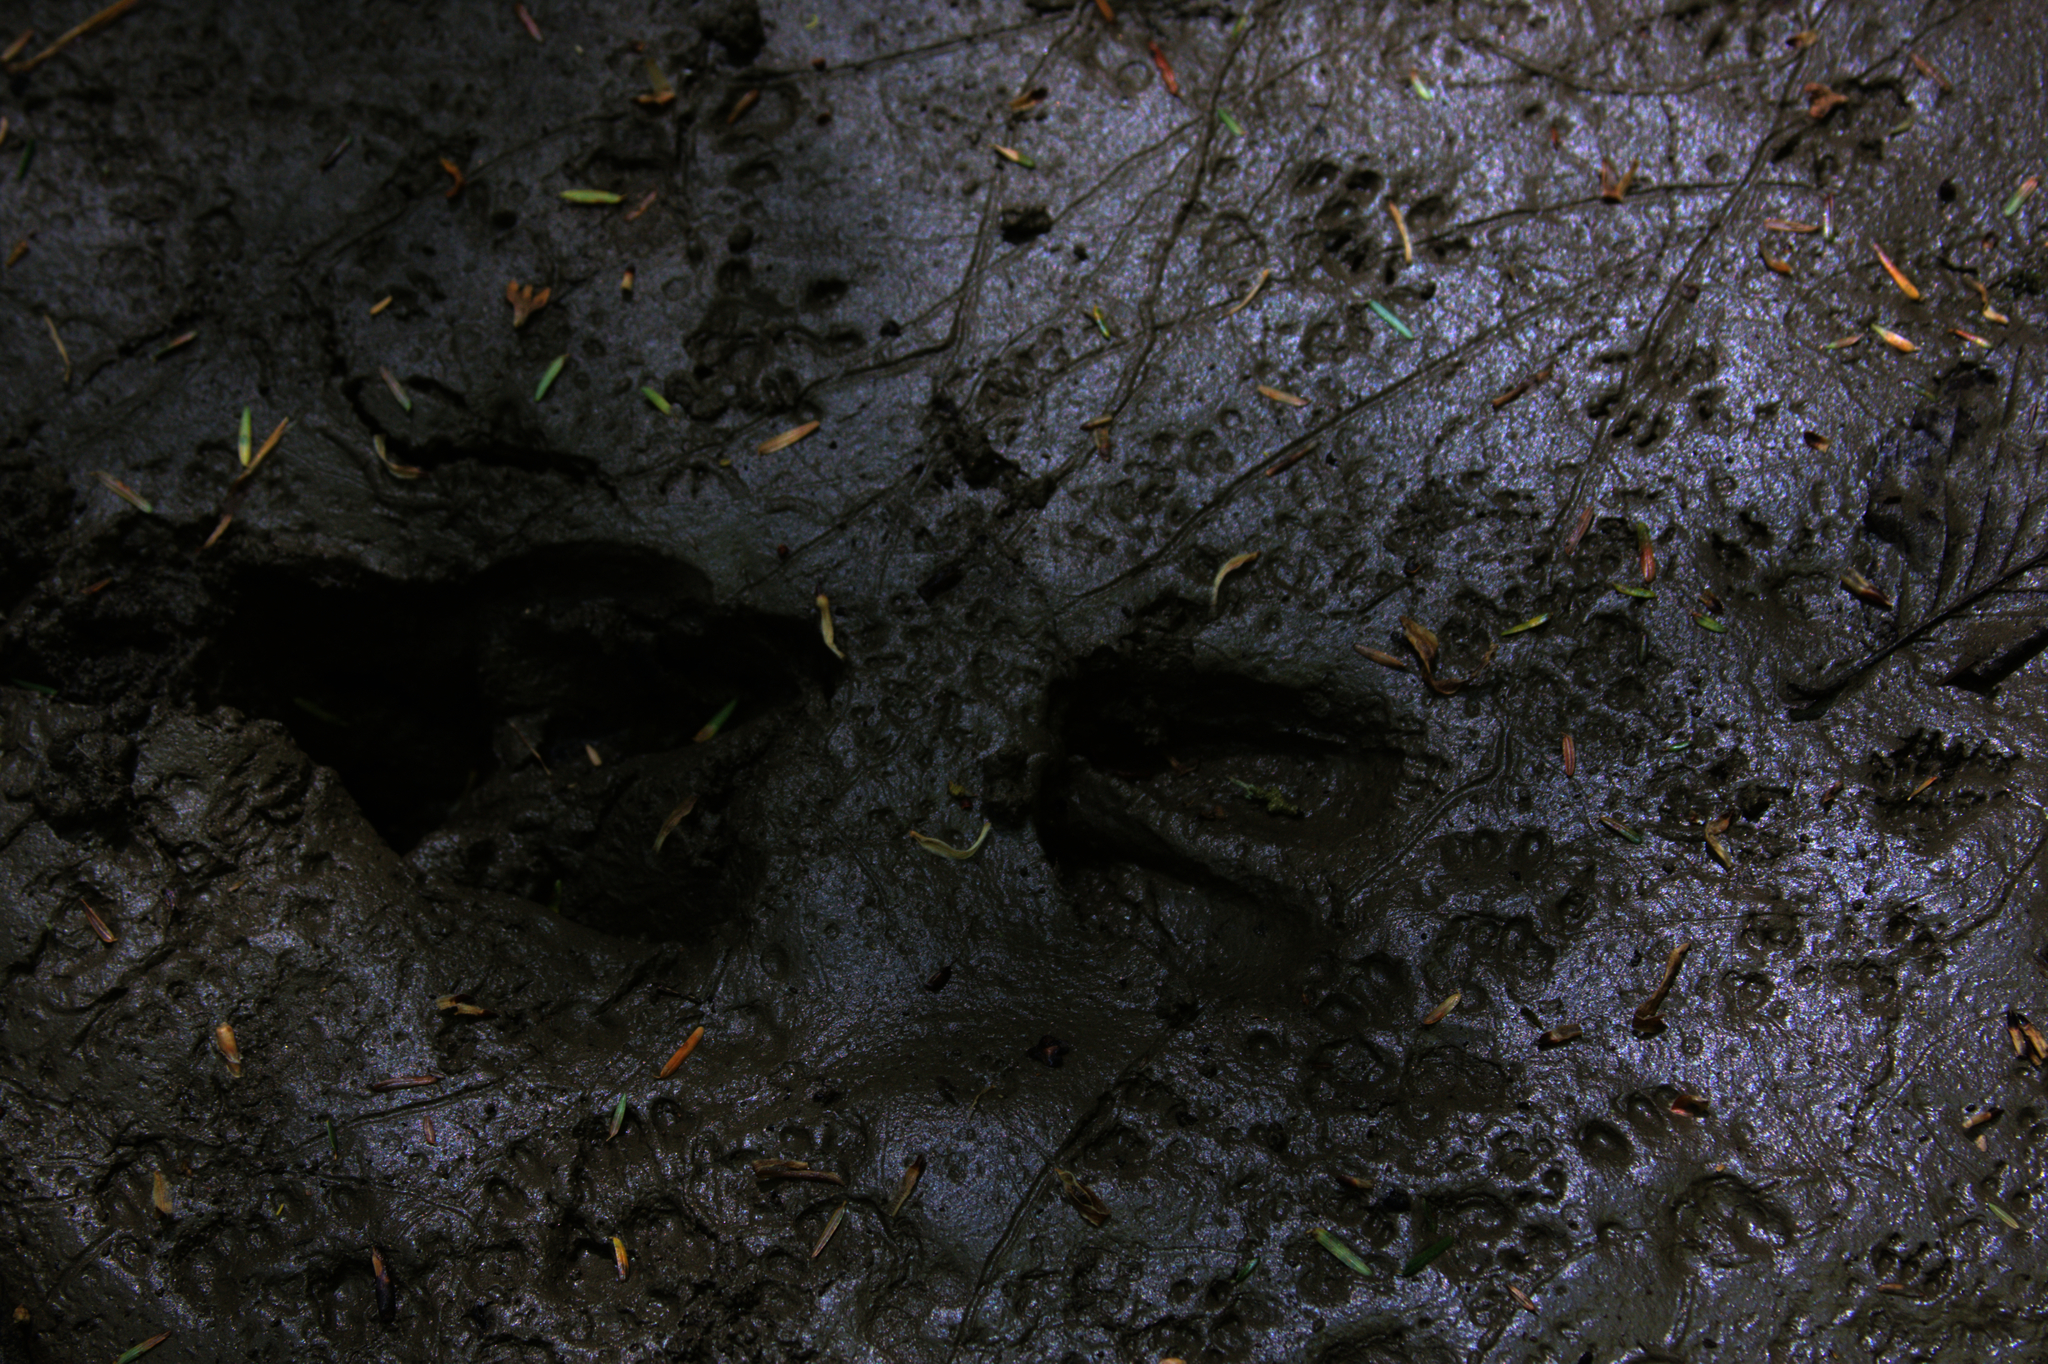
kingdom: Animalia
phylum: Chordata
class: Mammalia
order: Artiodactyla
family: Cervidae
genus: Odocoileus
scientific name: Odocoileus virginianus
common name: White-tailed deer
